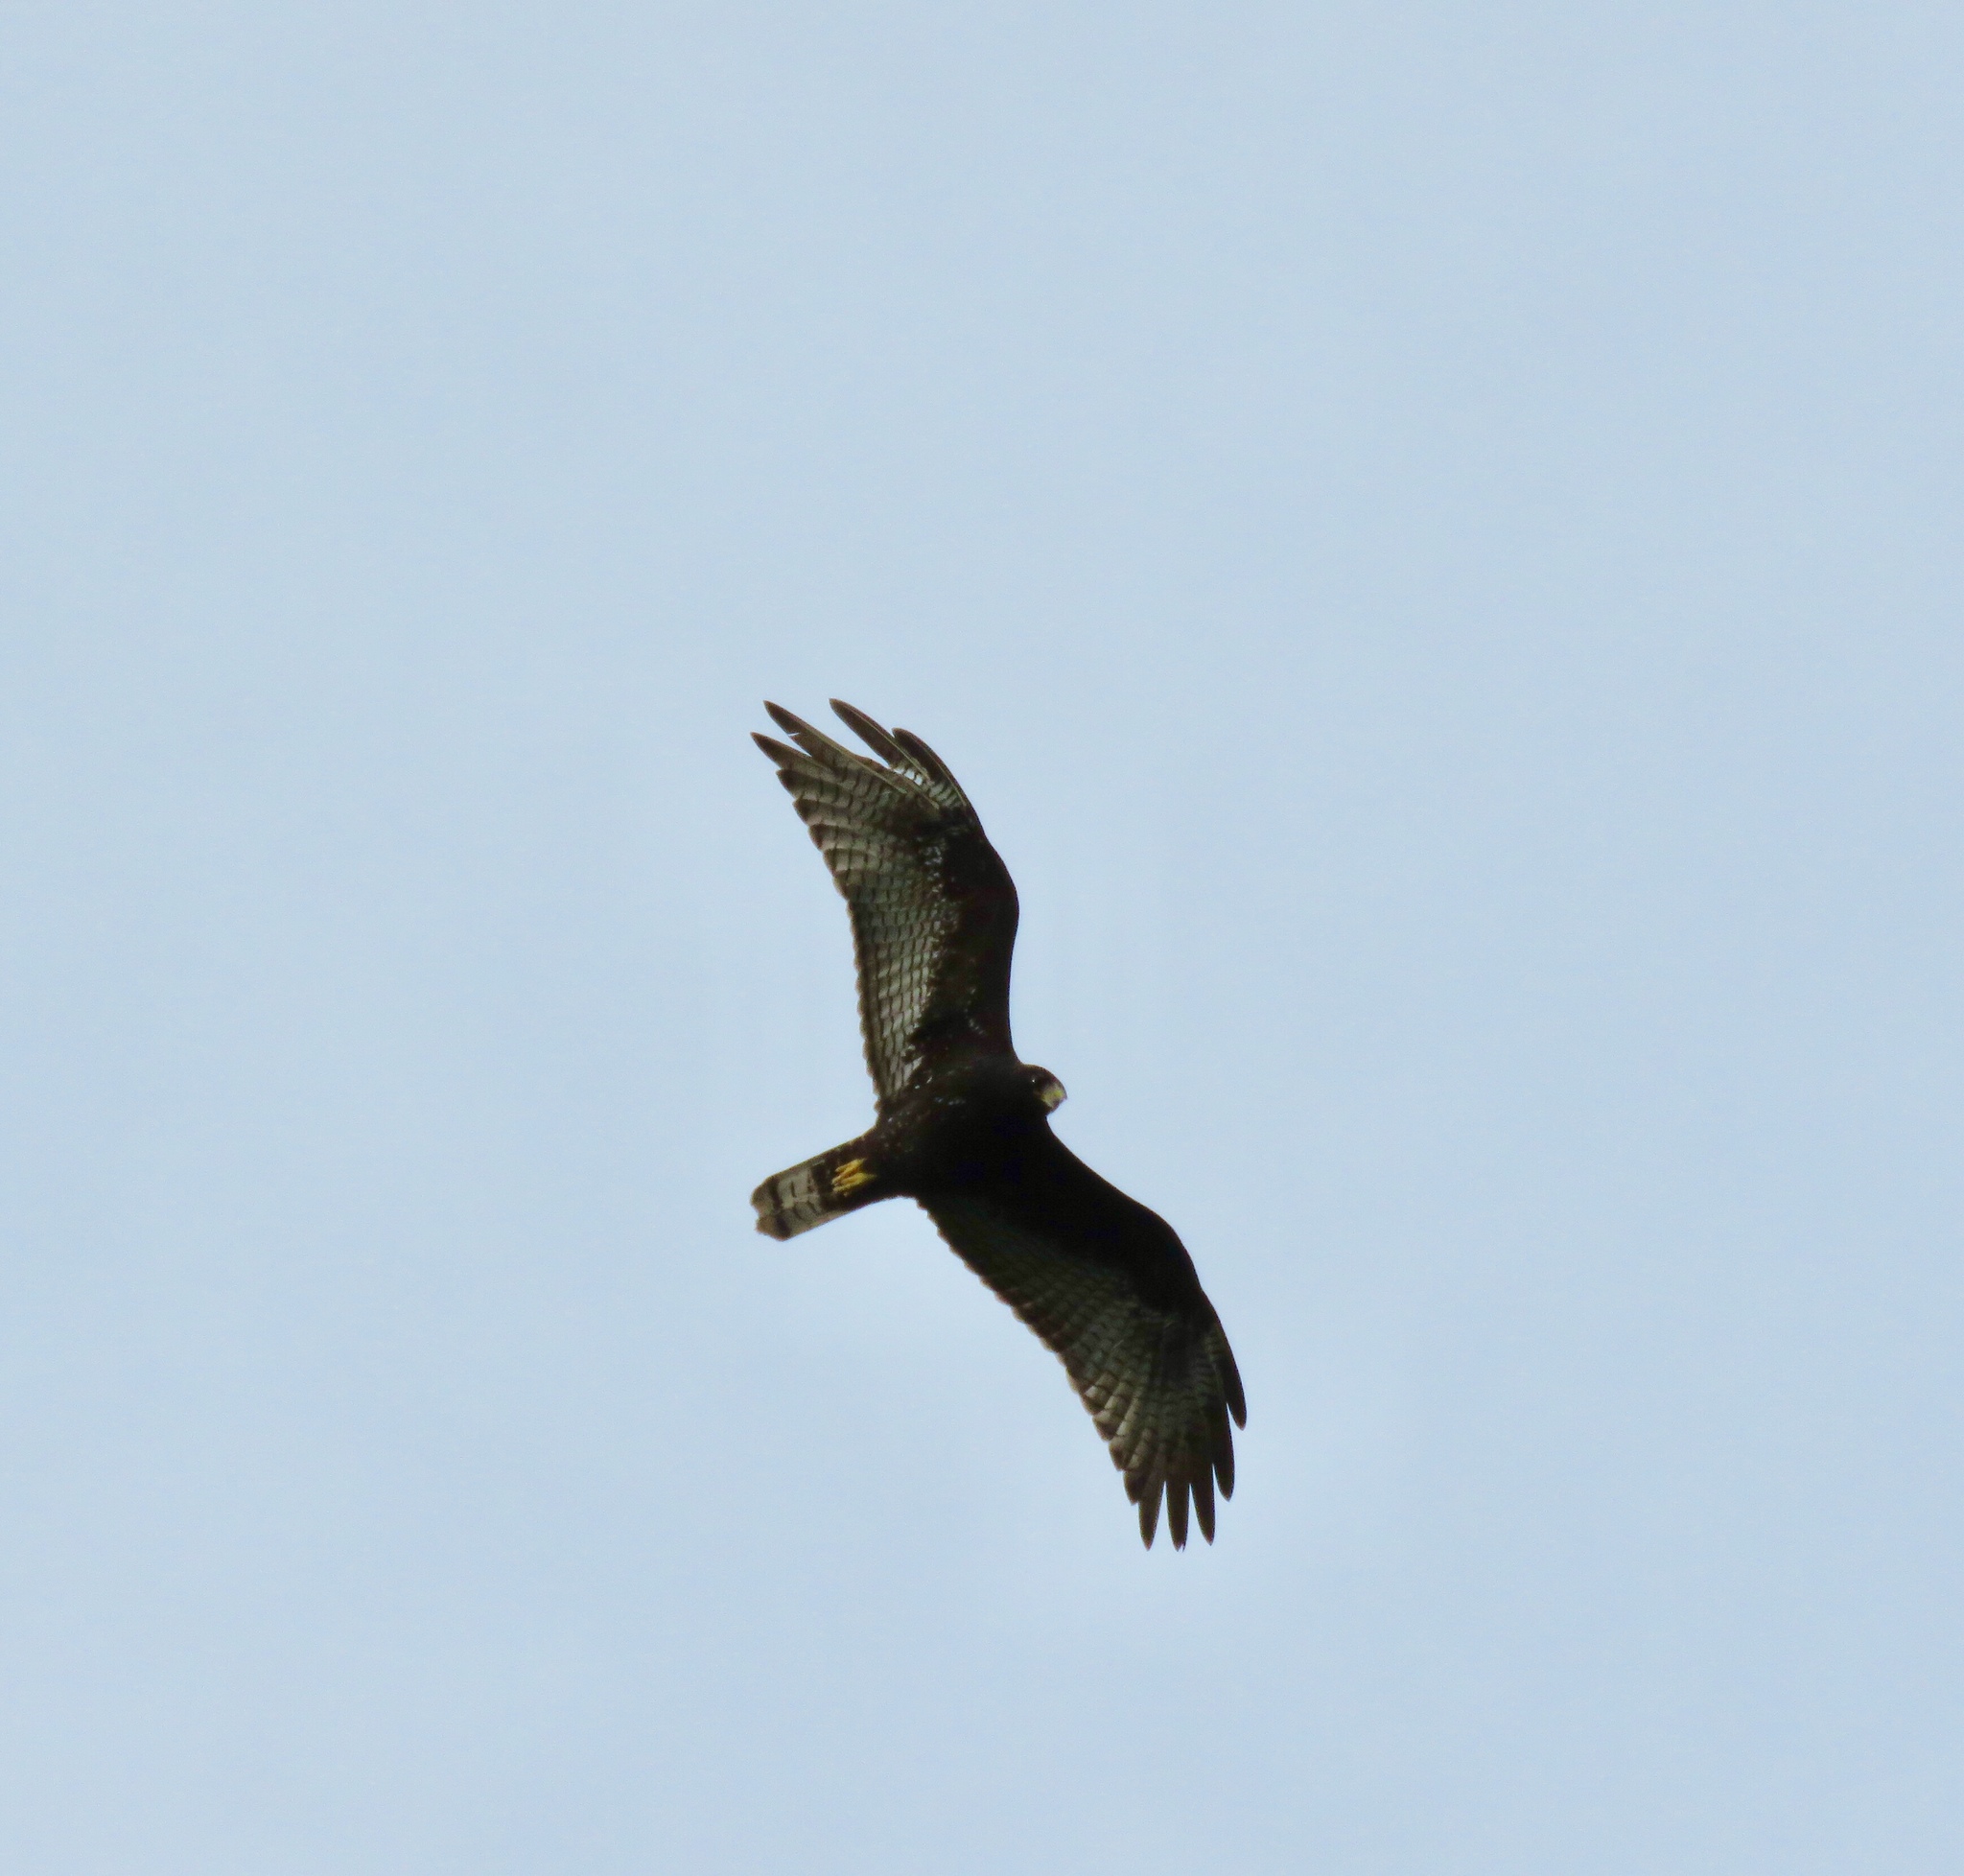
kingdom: Animalia
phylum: Chordata
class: Aves
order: Accipitriformes
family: Accipitridae
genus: Buteo
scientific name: Buteo albonotatus
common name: Zone-tailed hawk
